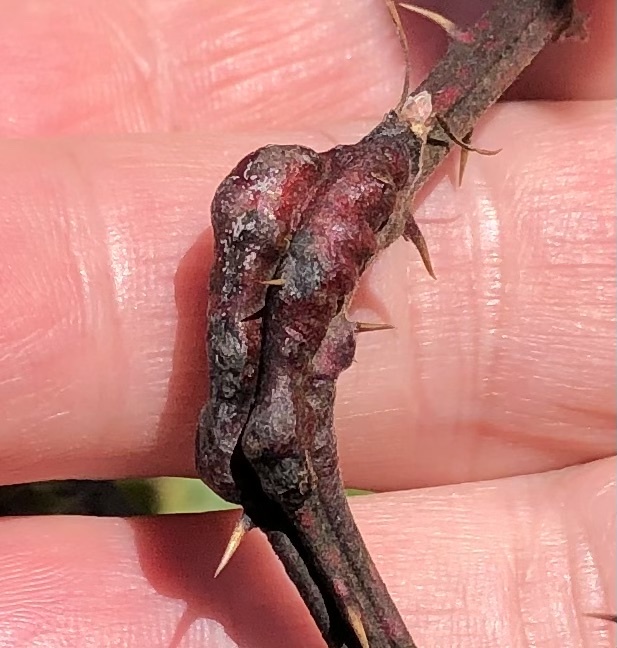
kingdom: Animalia
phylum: Arthropoda
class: Insecta
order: Hymenoptera
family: Cynipidae
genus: Diastrophus
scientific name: Diastrophus
